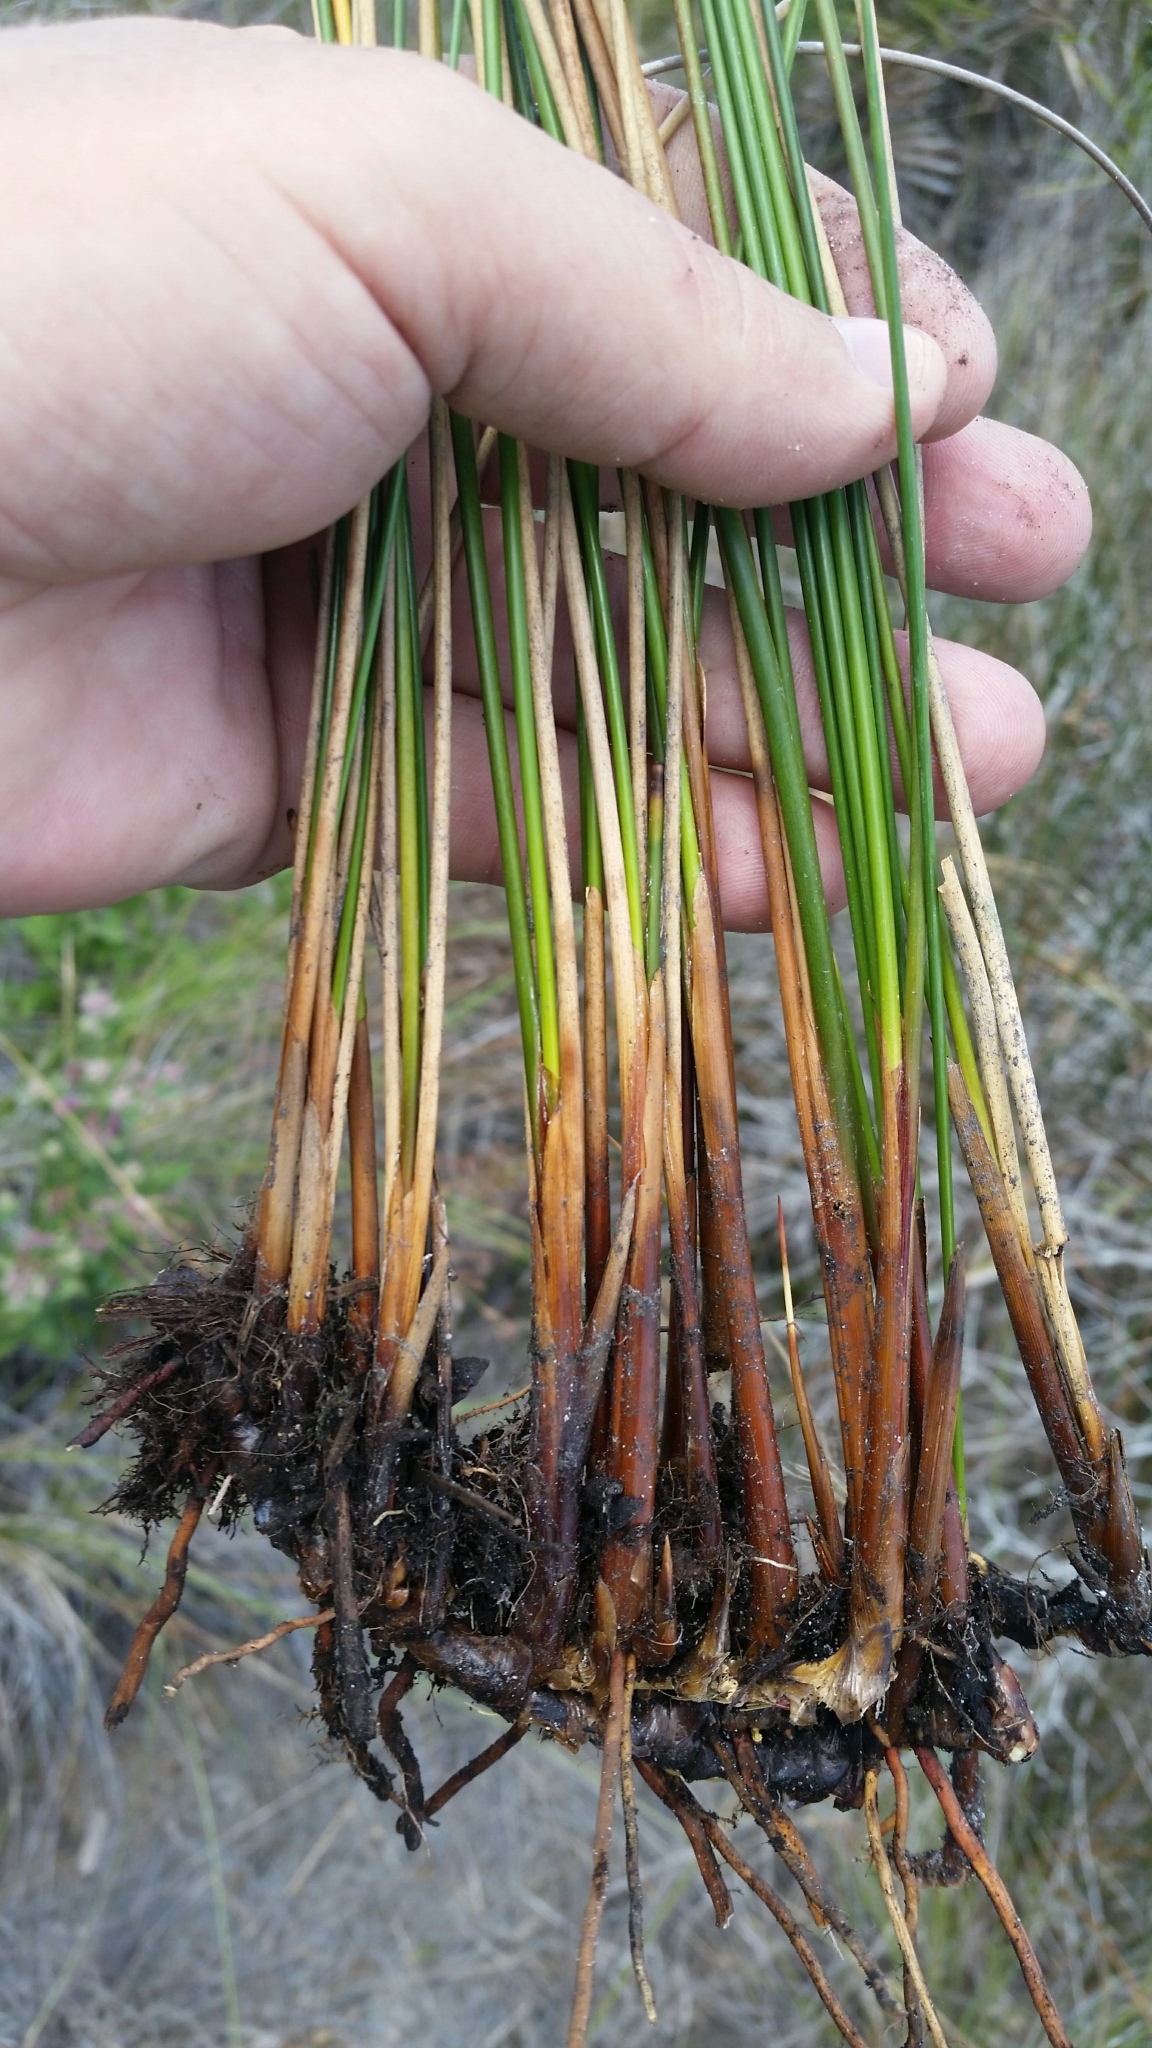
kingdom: Plantae
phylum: Tracheophyta
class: Liliopsida
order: Poales
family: Juncaceae
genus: Juncus
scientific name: Juncus roemerianus
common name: Roemer's rush
